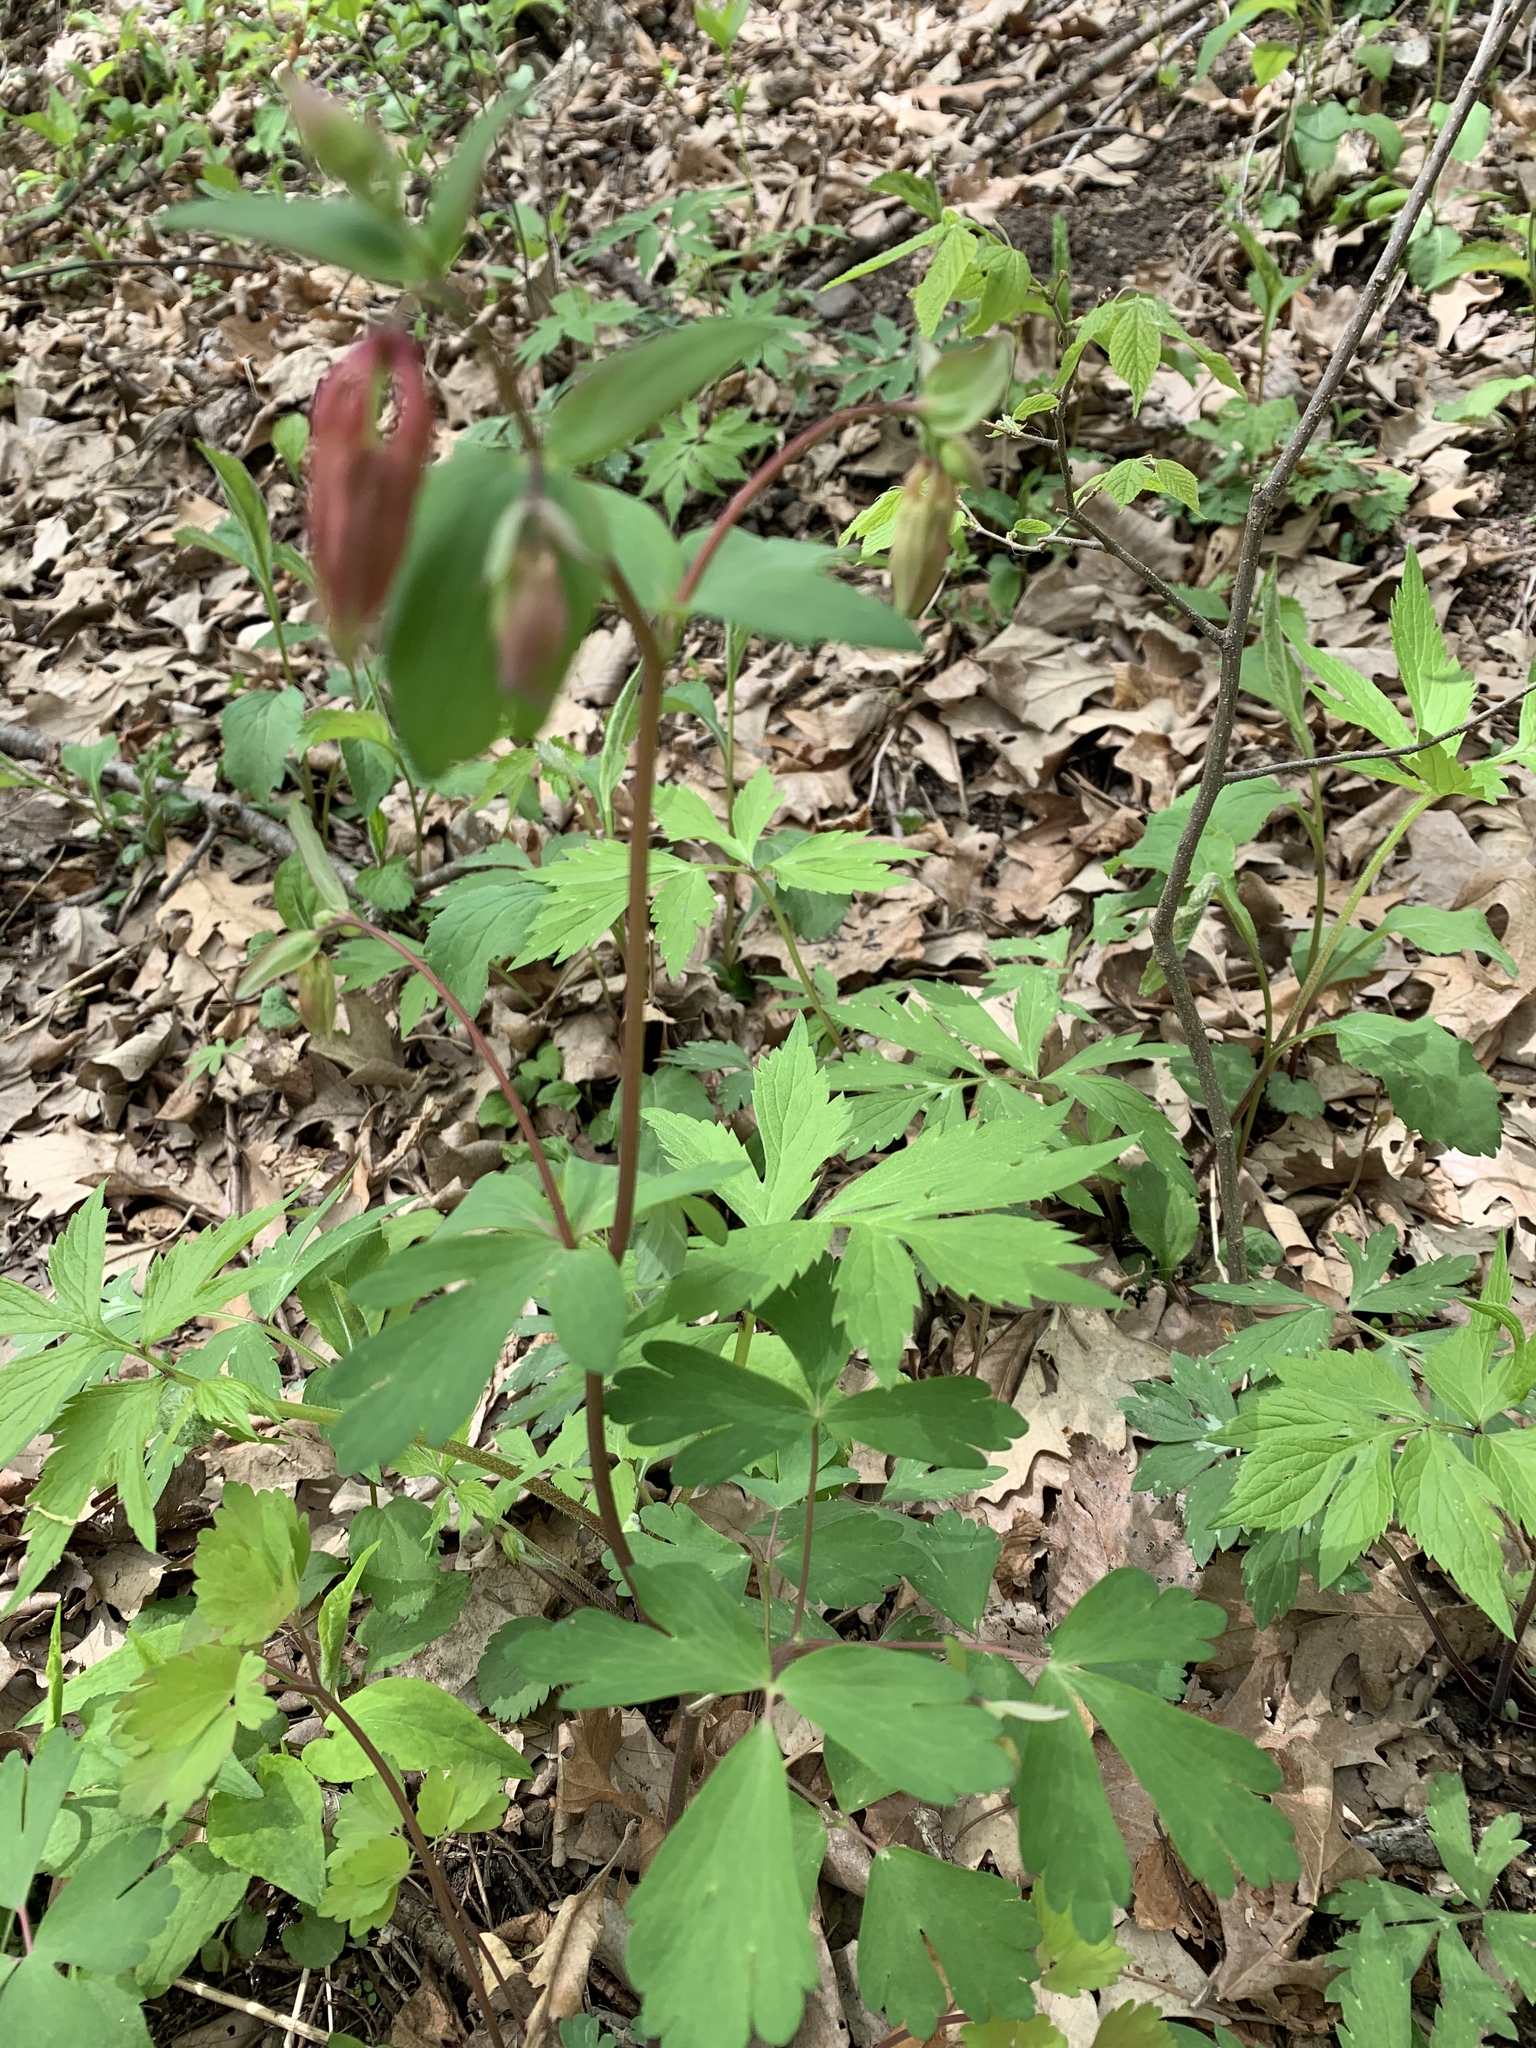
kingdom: Plantae
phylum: Tracheophyta
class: Magnoliopsida
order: Ranunculales
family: Ranunculaceae
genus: Aquilegia
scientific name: Aquilegia canadensis
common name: American columbine
